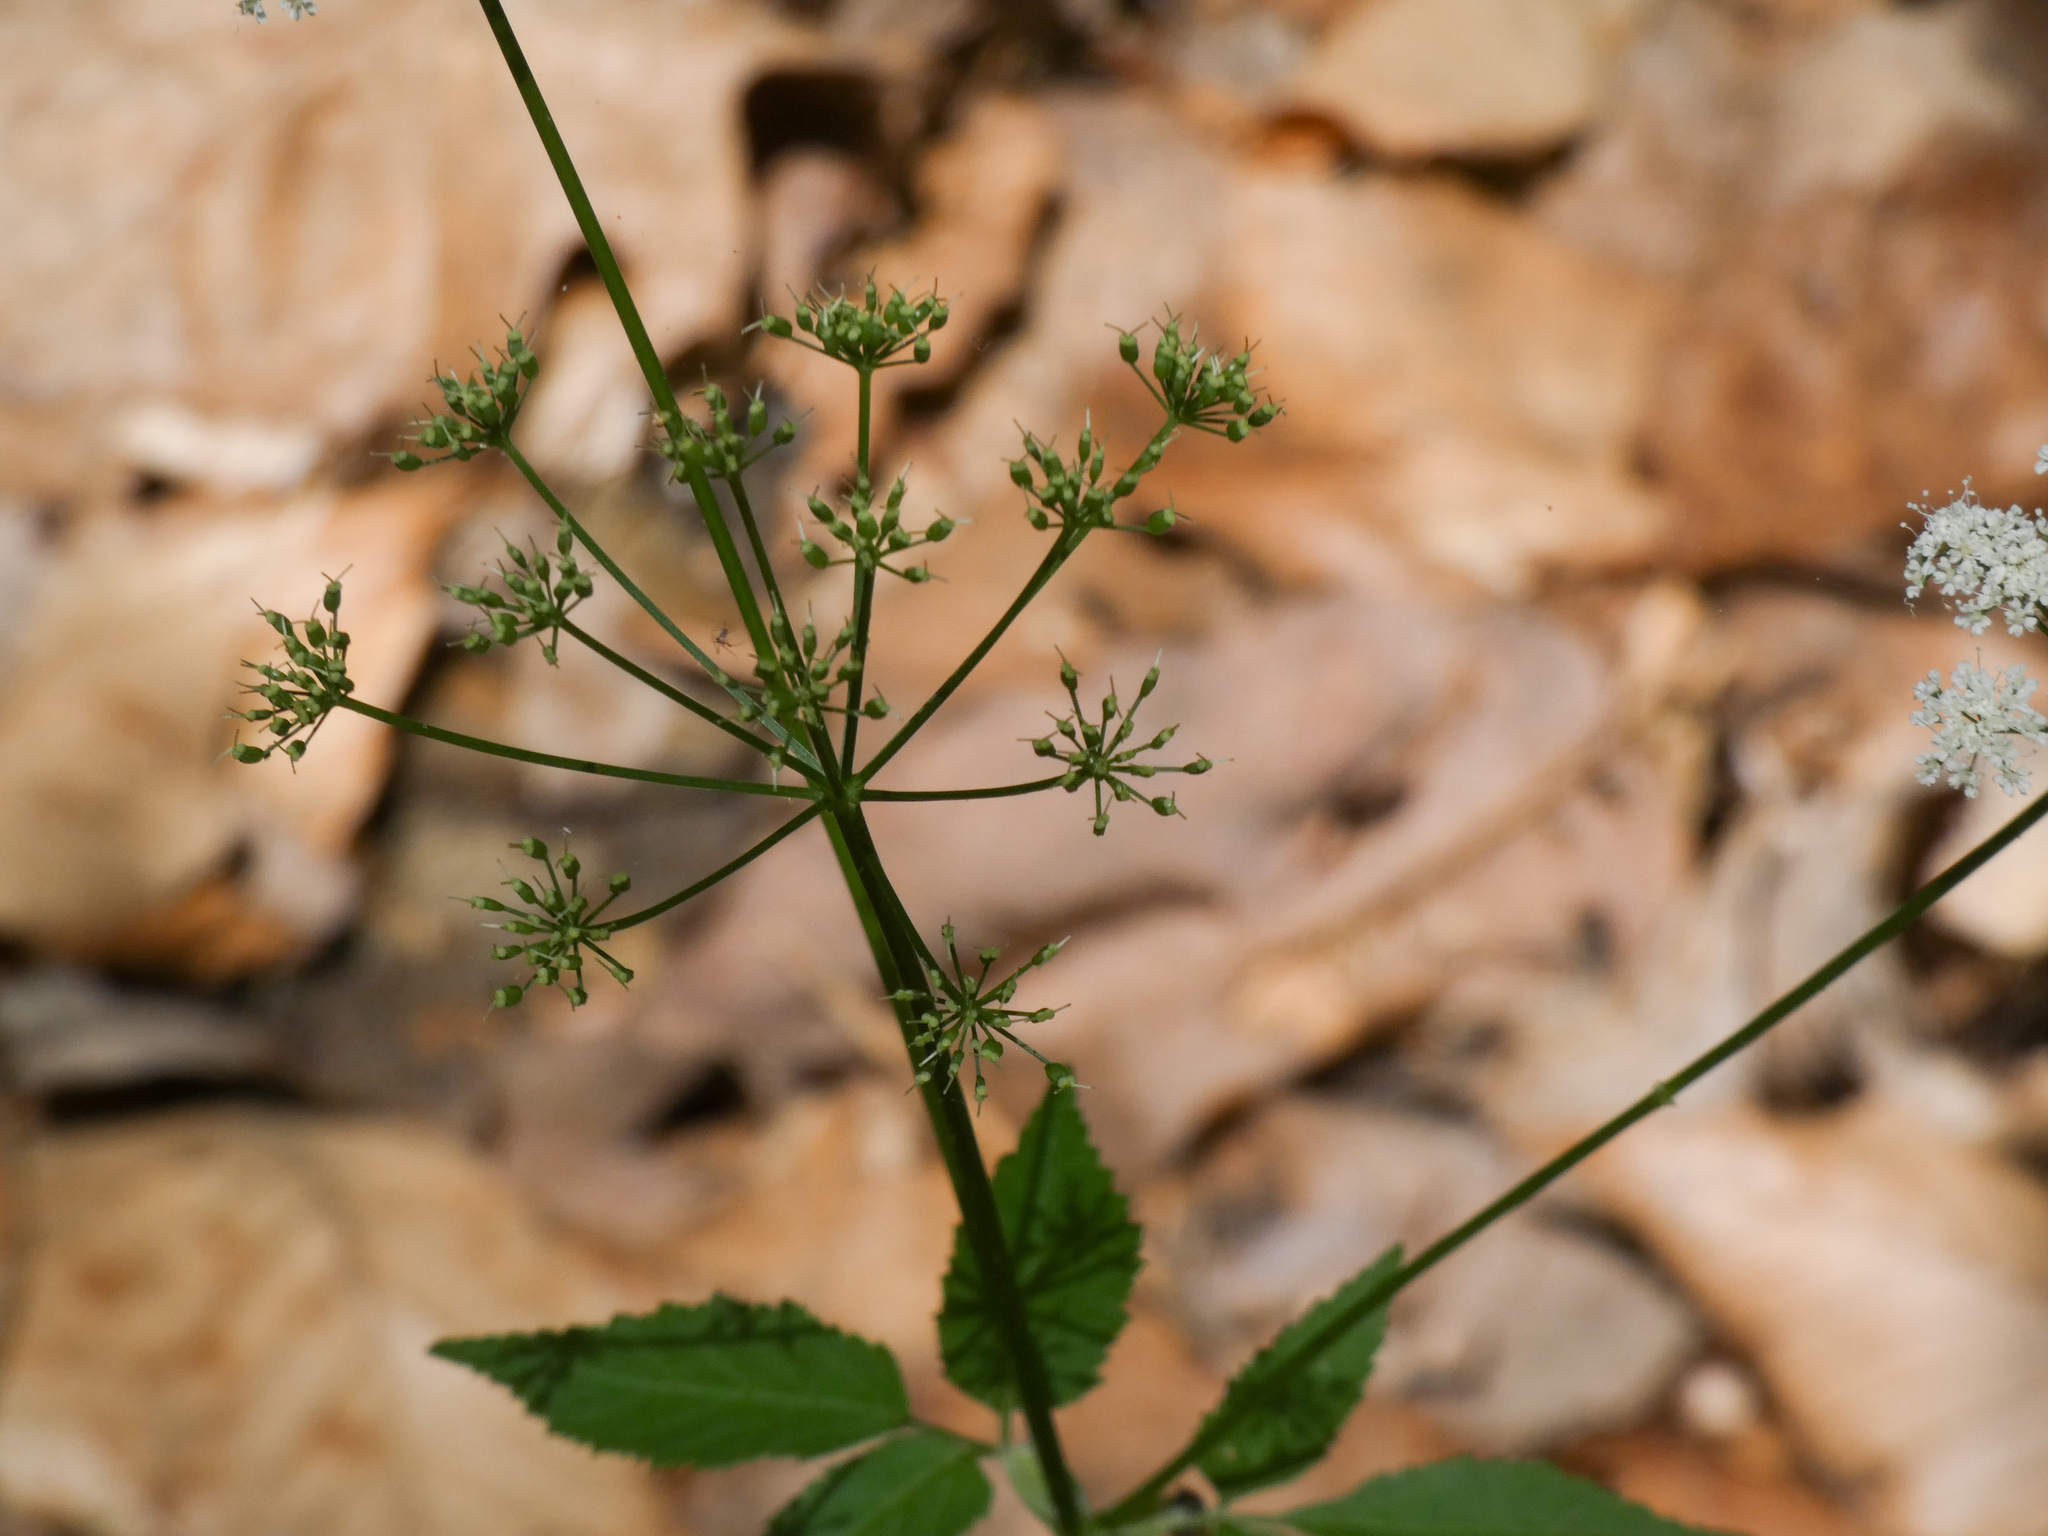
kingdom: Plantae
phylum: Tracheophyta
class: Magnoliopsida
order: Apiales
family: Apiaceae
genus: Aegopodium
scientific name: Aegopodium podagraria
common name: Ground-elder
